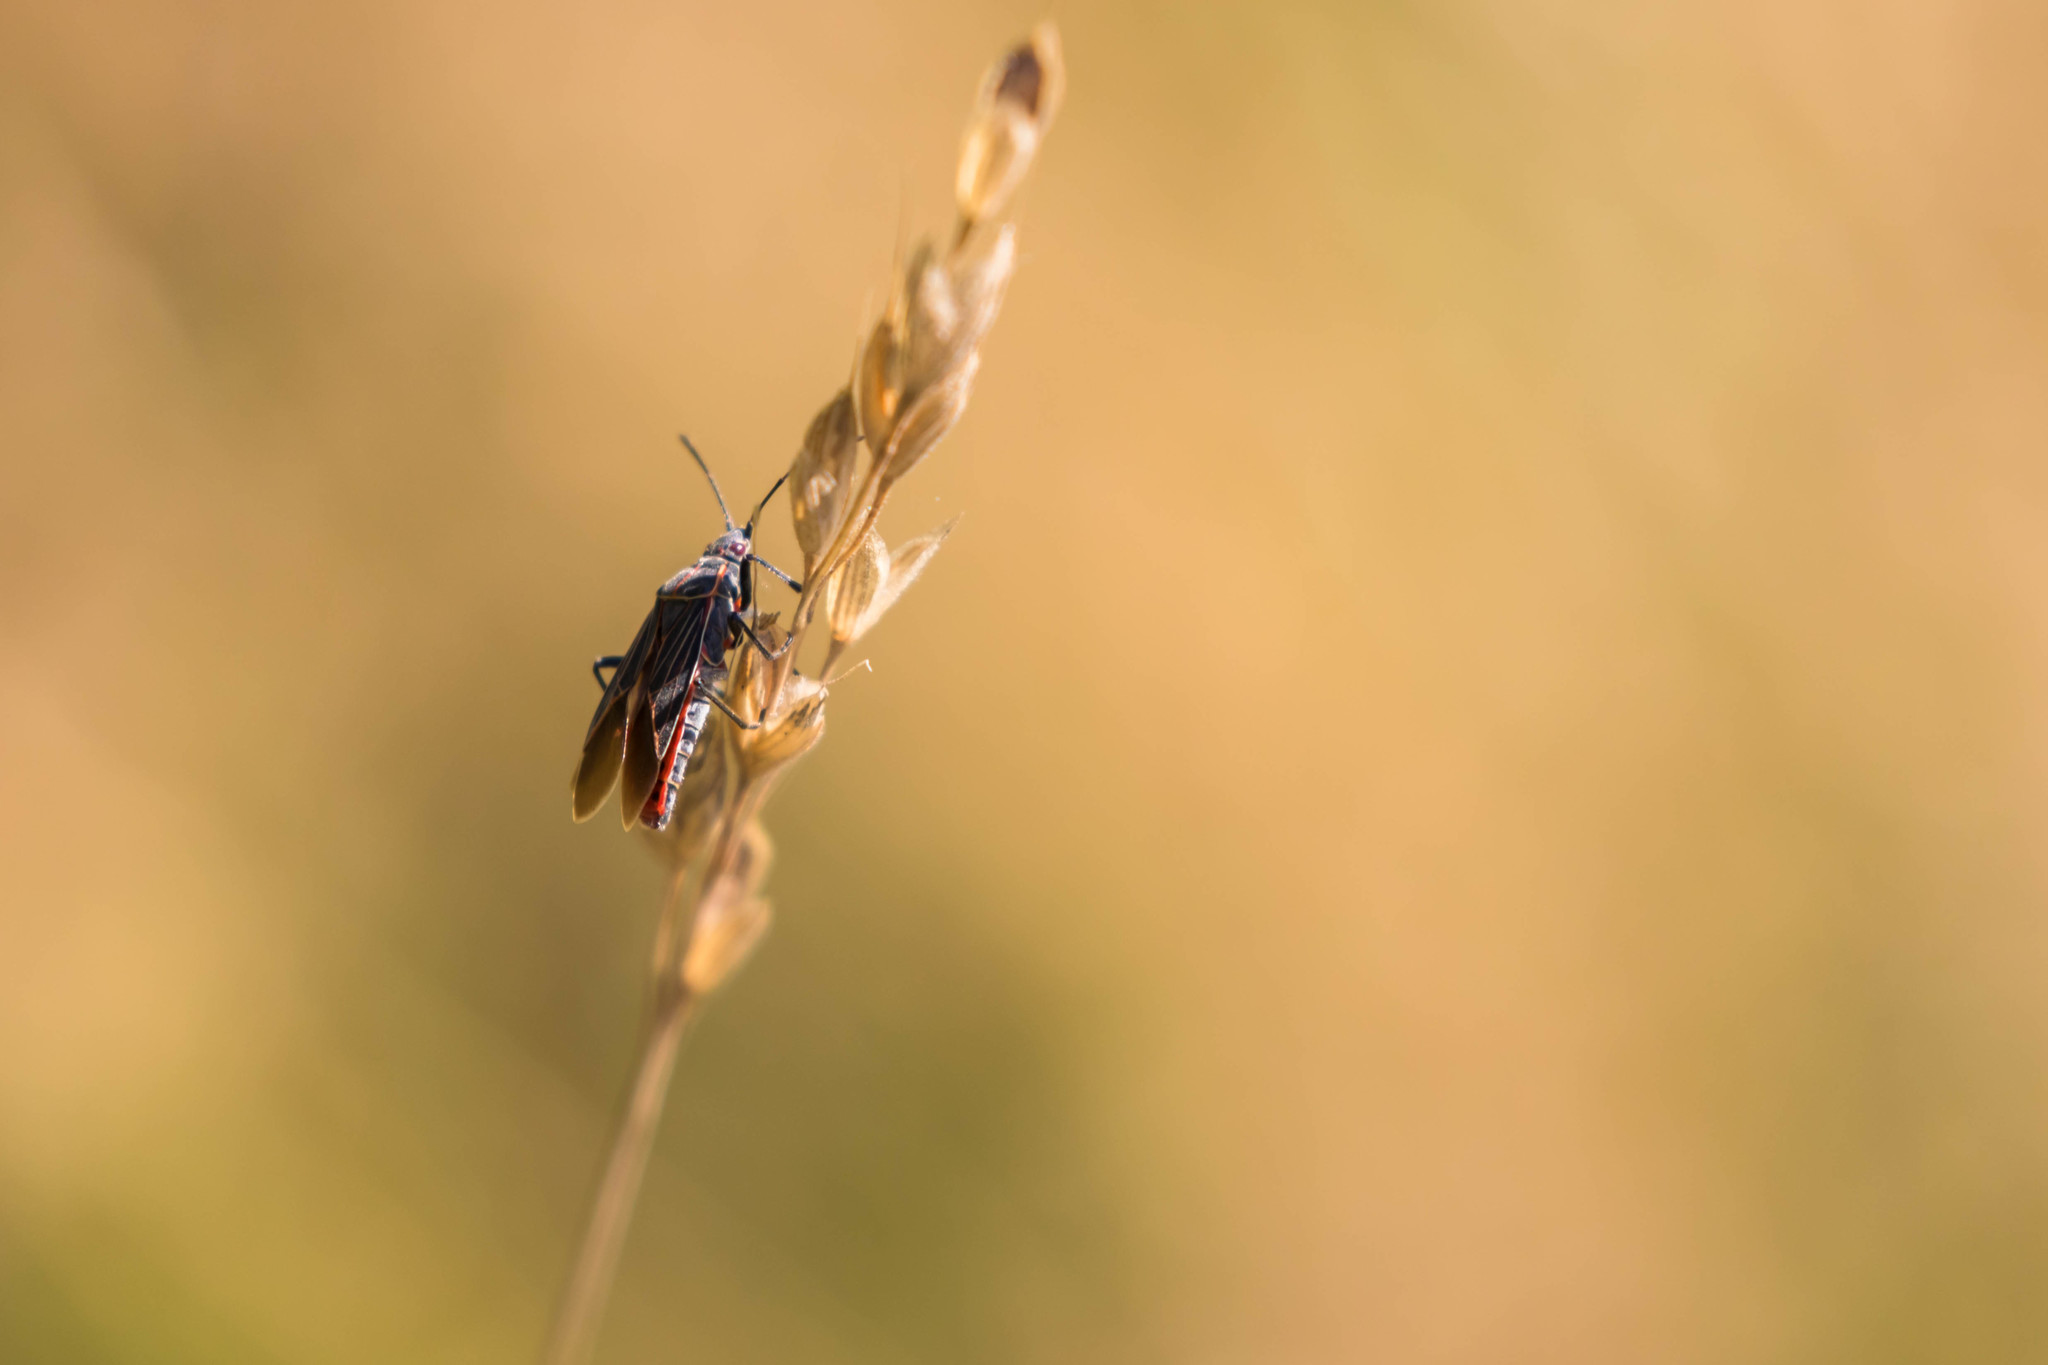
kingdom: Animalia
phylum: Arthropoda
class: Insecta
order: Hemiptera
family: Rhopalidae
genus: Boisea
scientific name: Boisea rubrolineata
